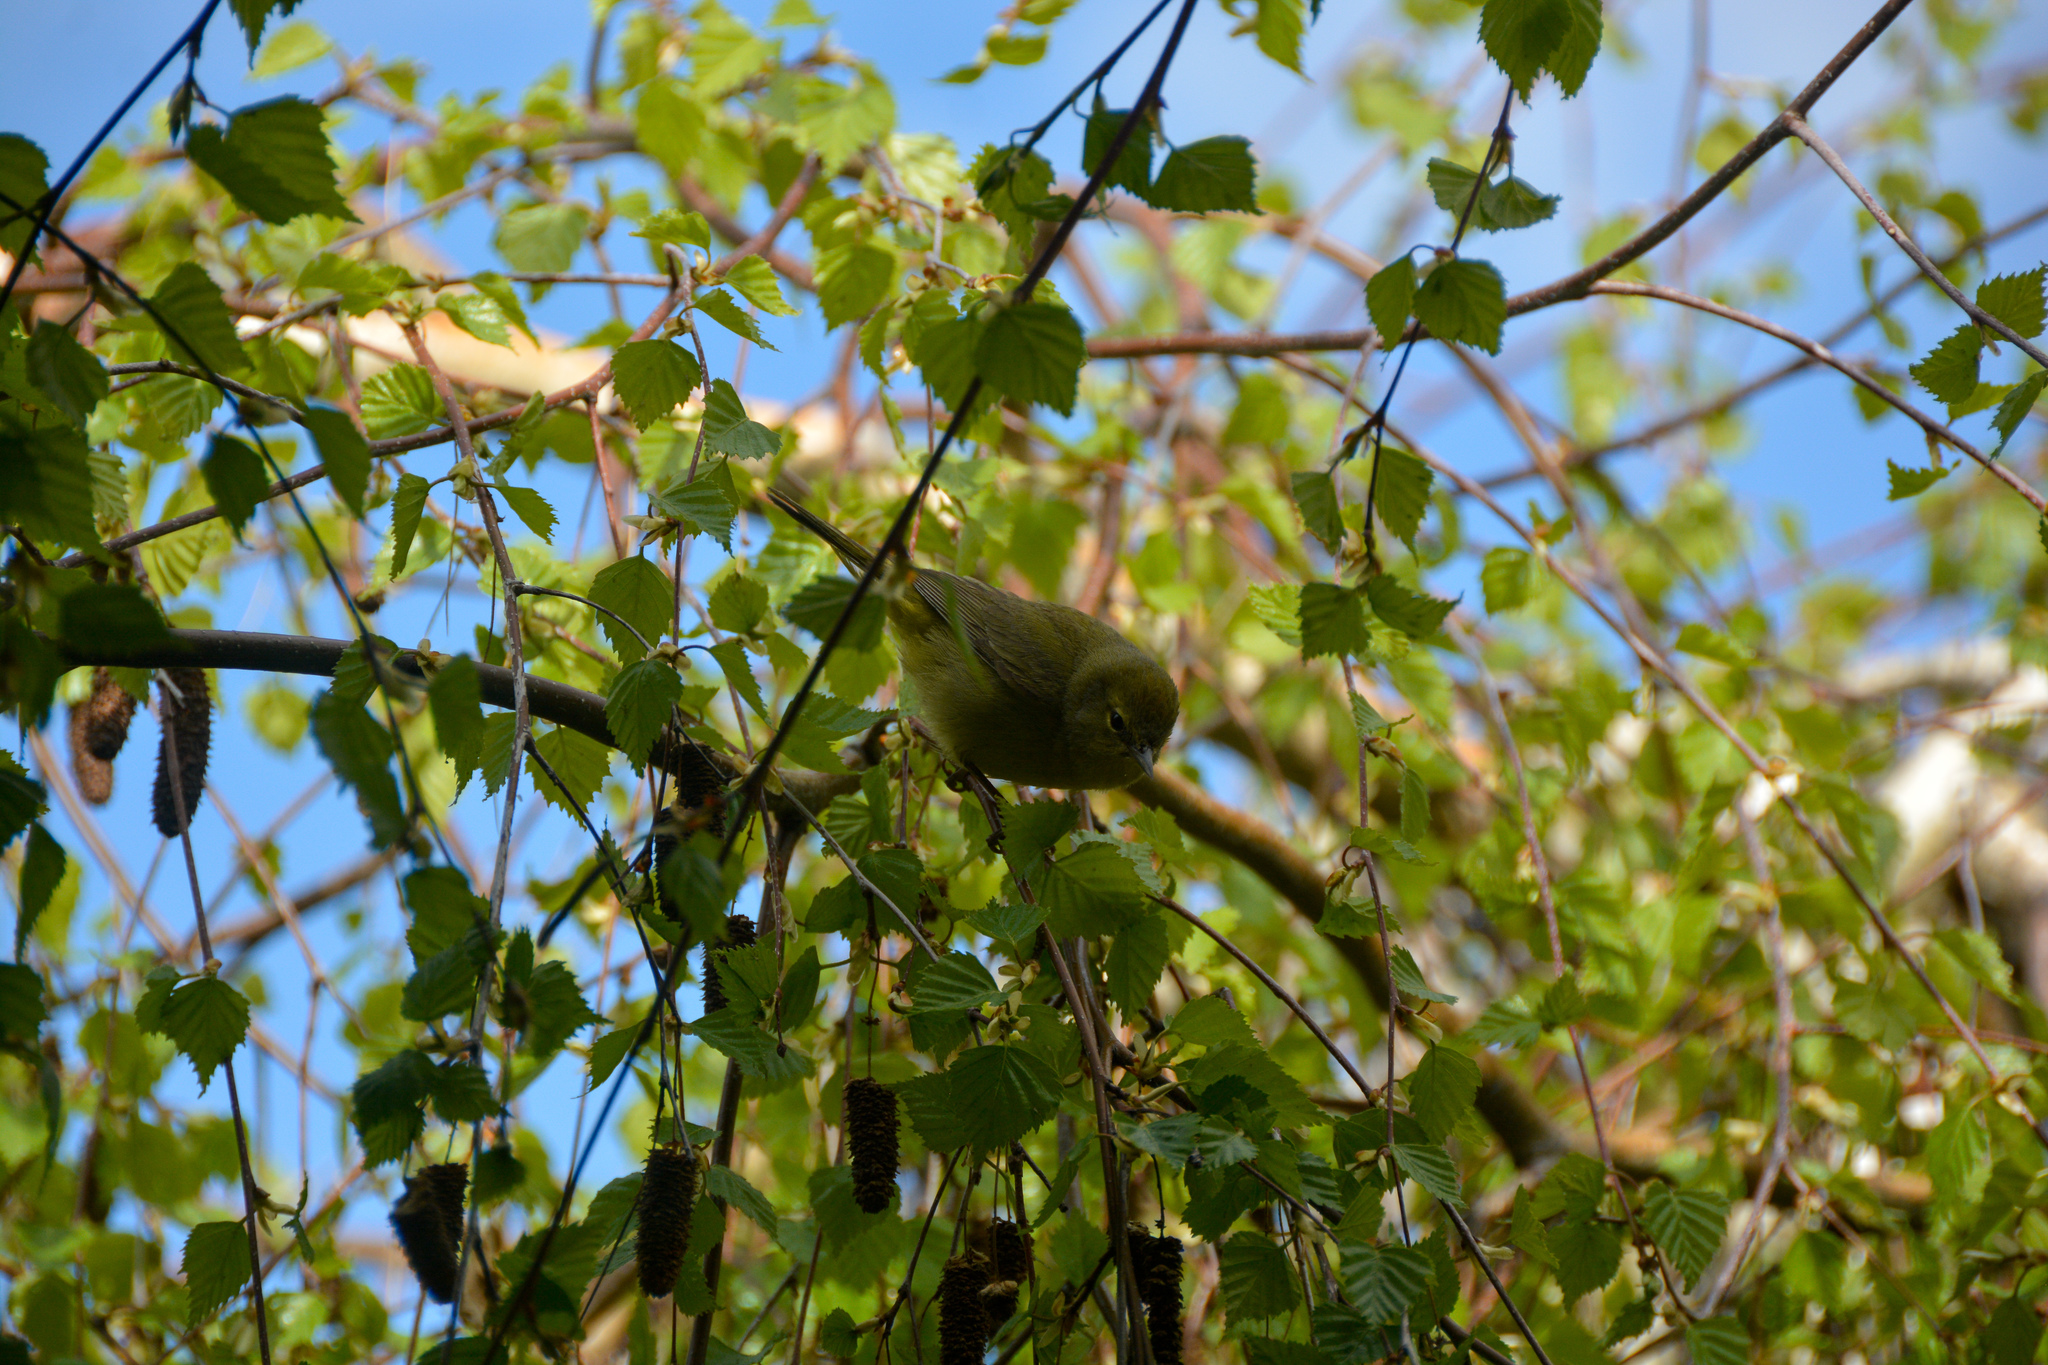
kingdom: Animalia
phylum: Chordata
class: Aves
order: Passeriformes
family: Parulidae
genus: Leiothlypis
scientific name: Leiothlypis celata
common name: Orange-crowned warbler
